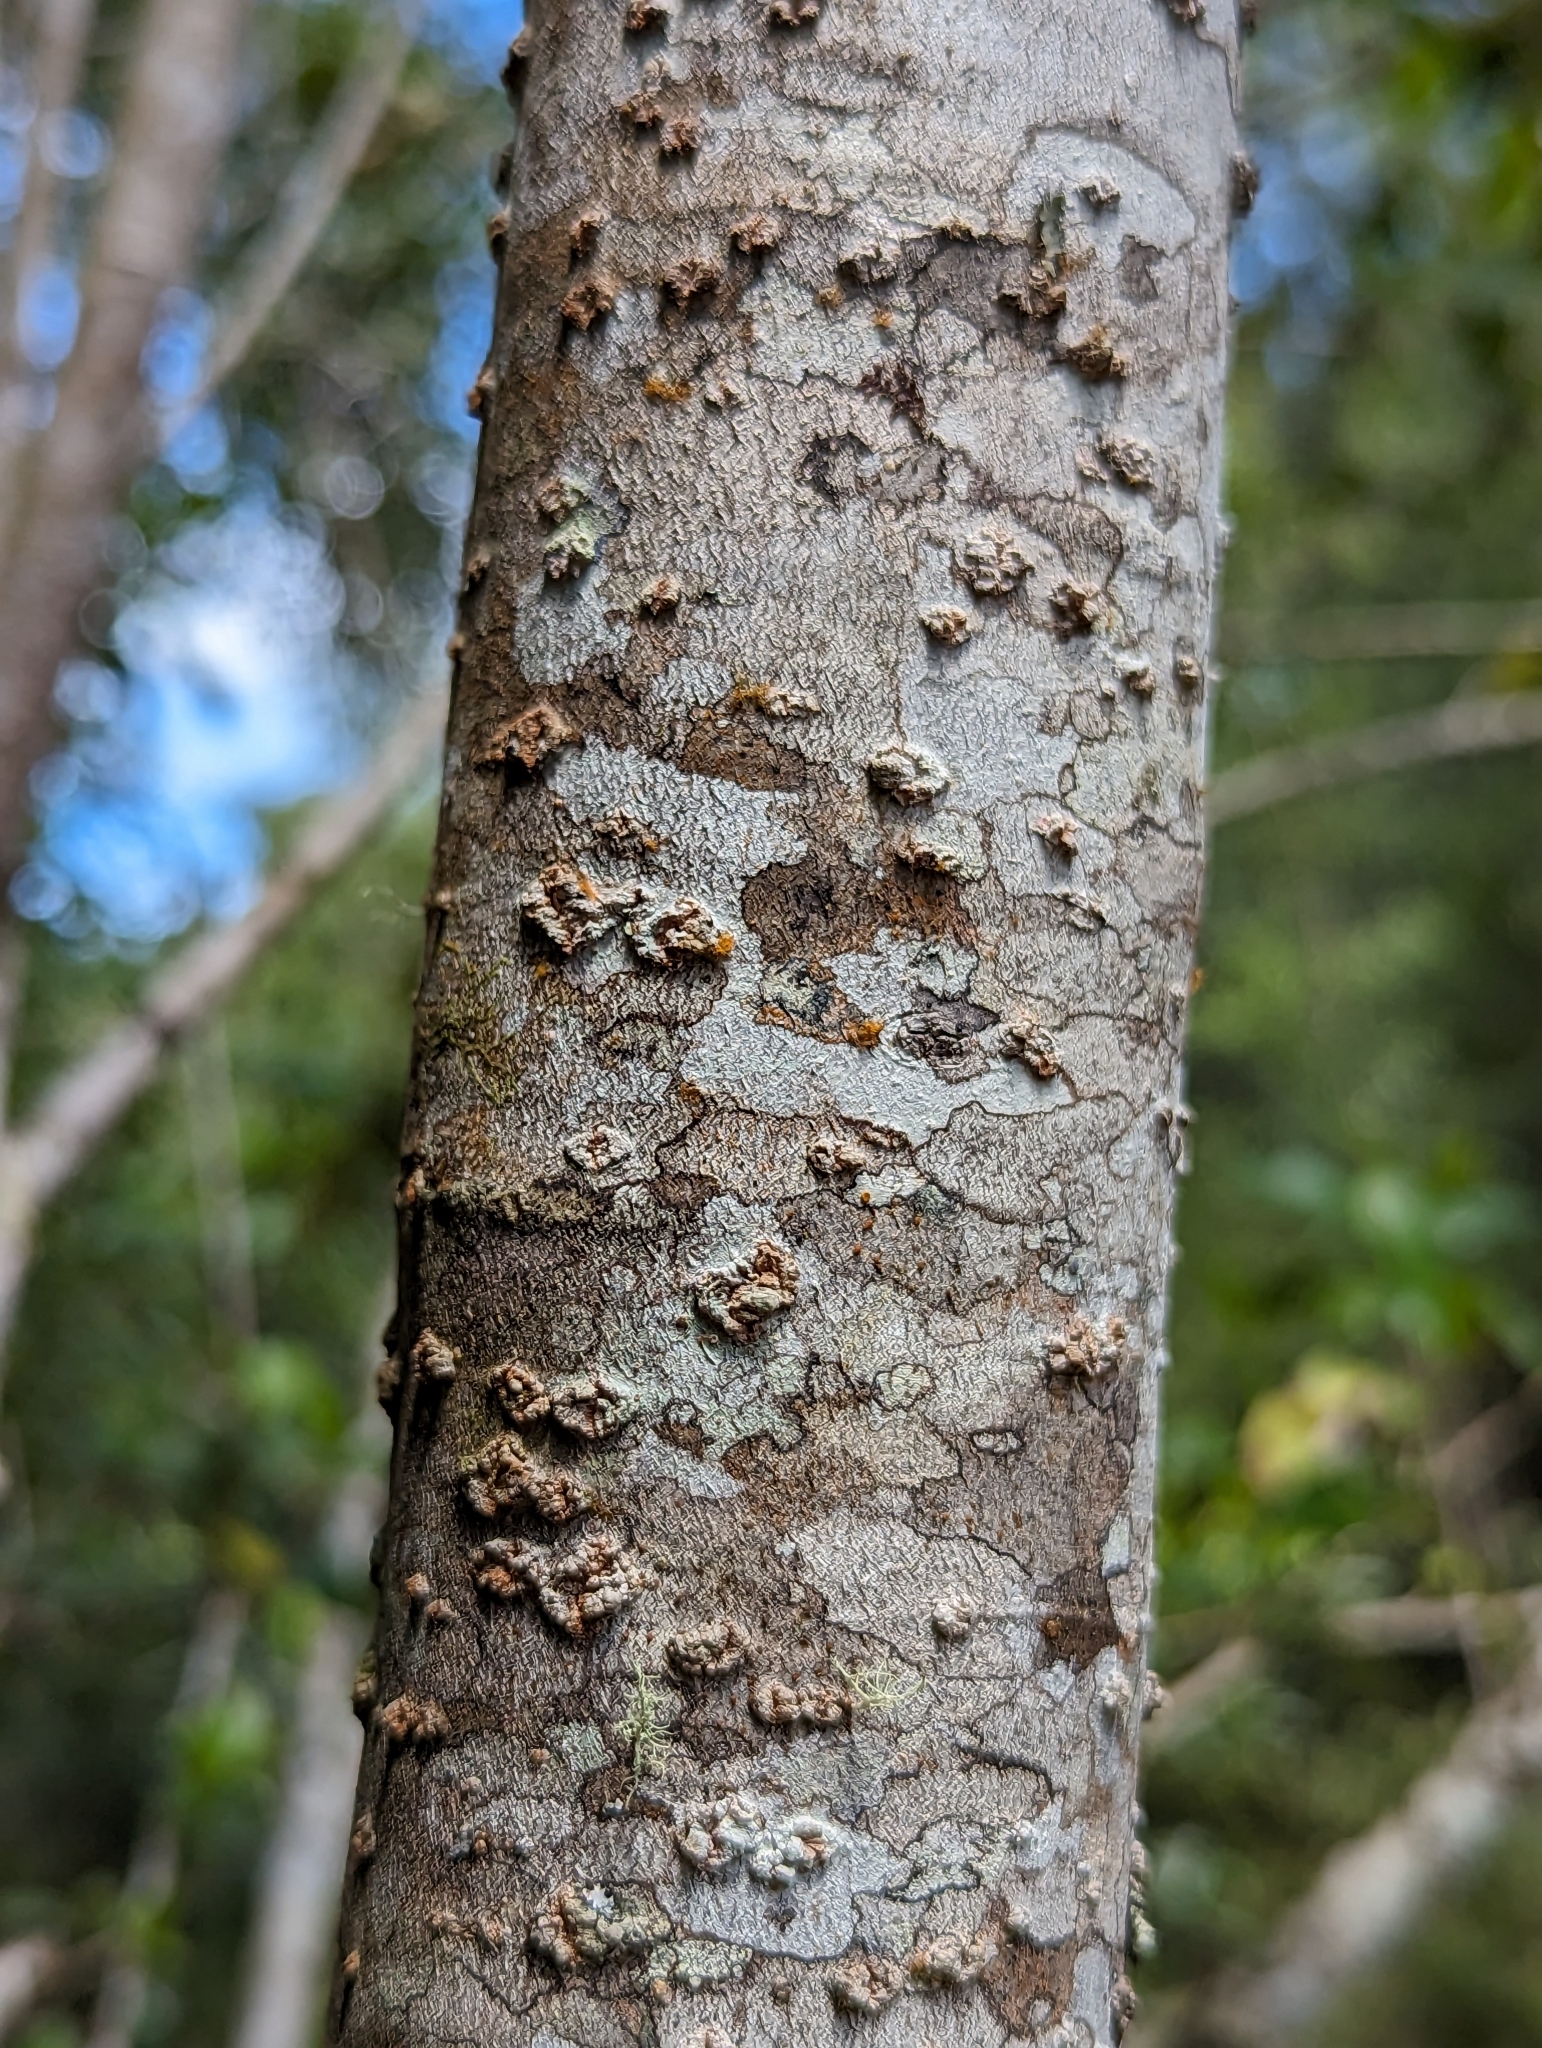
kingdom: Plantae
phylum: Tracheophyta
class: Magnoliopsida
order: Ericales
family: Primulaceae
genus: Myrsine
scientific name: Myrsine melanophloeos
